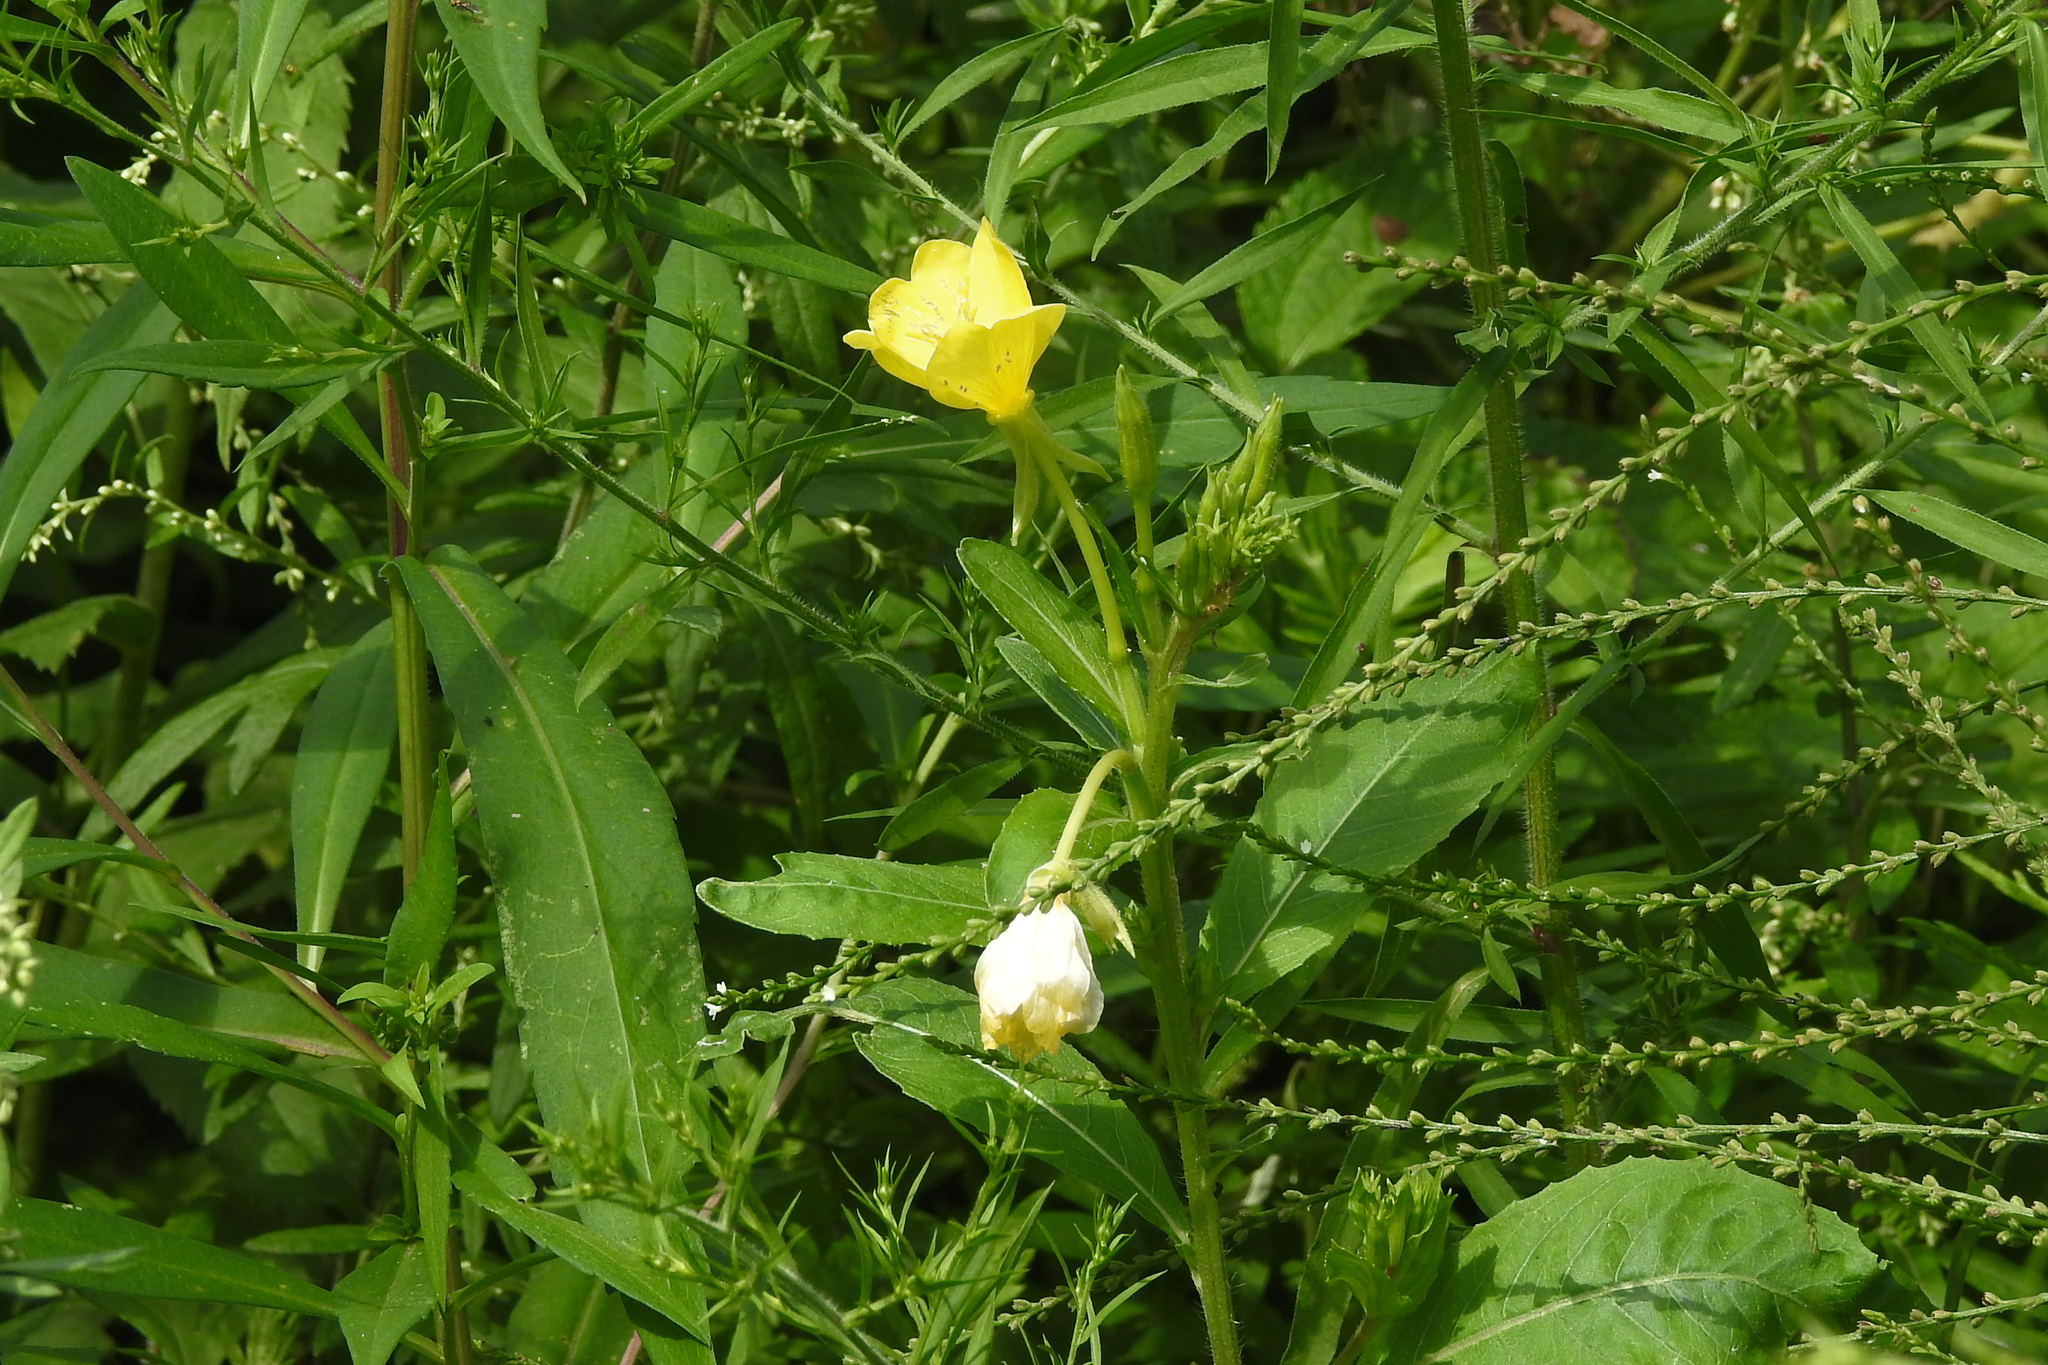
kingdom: Plantae
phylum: Tracheophyta
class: Magnoliopsida
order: Myrtales
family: Onagraceae
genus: Oenothera
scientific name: Oenothera biennis
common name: Common evening-primrose
